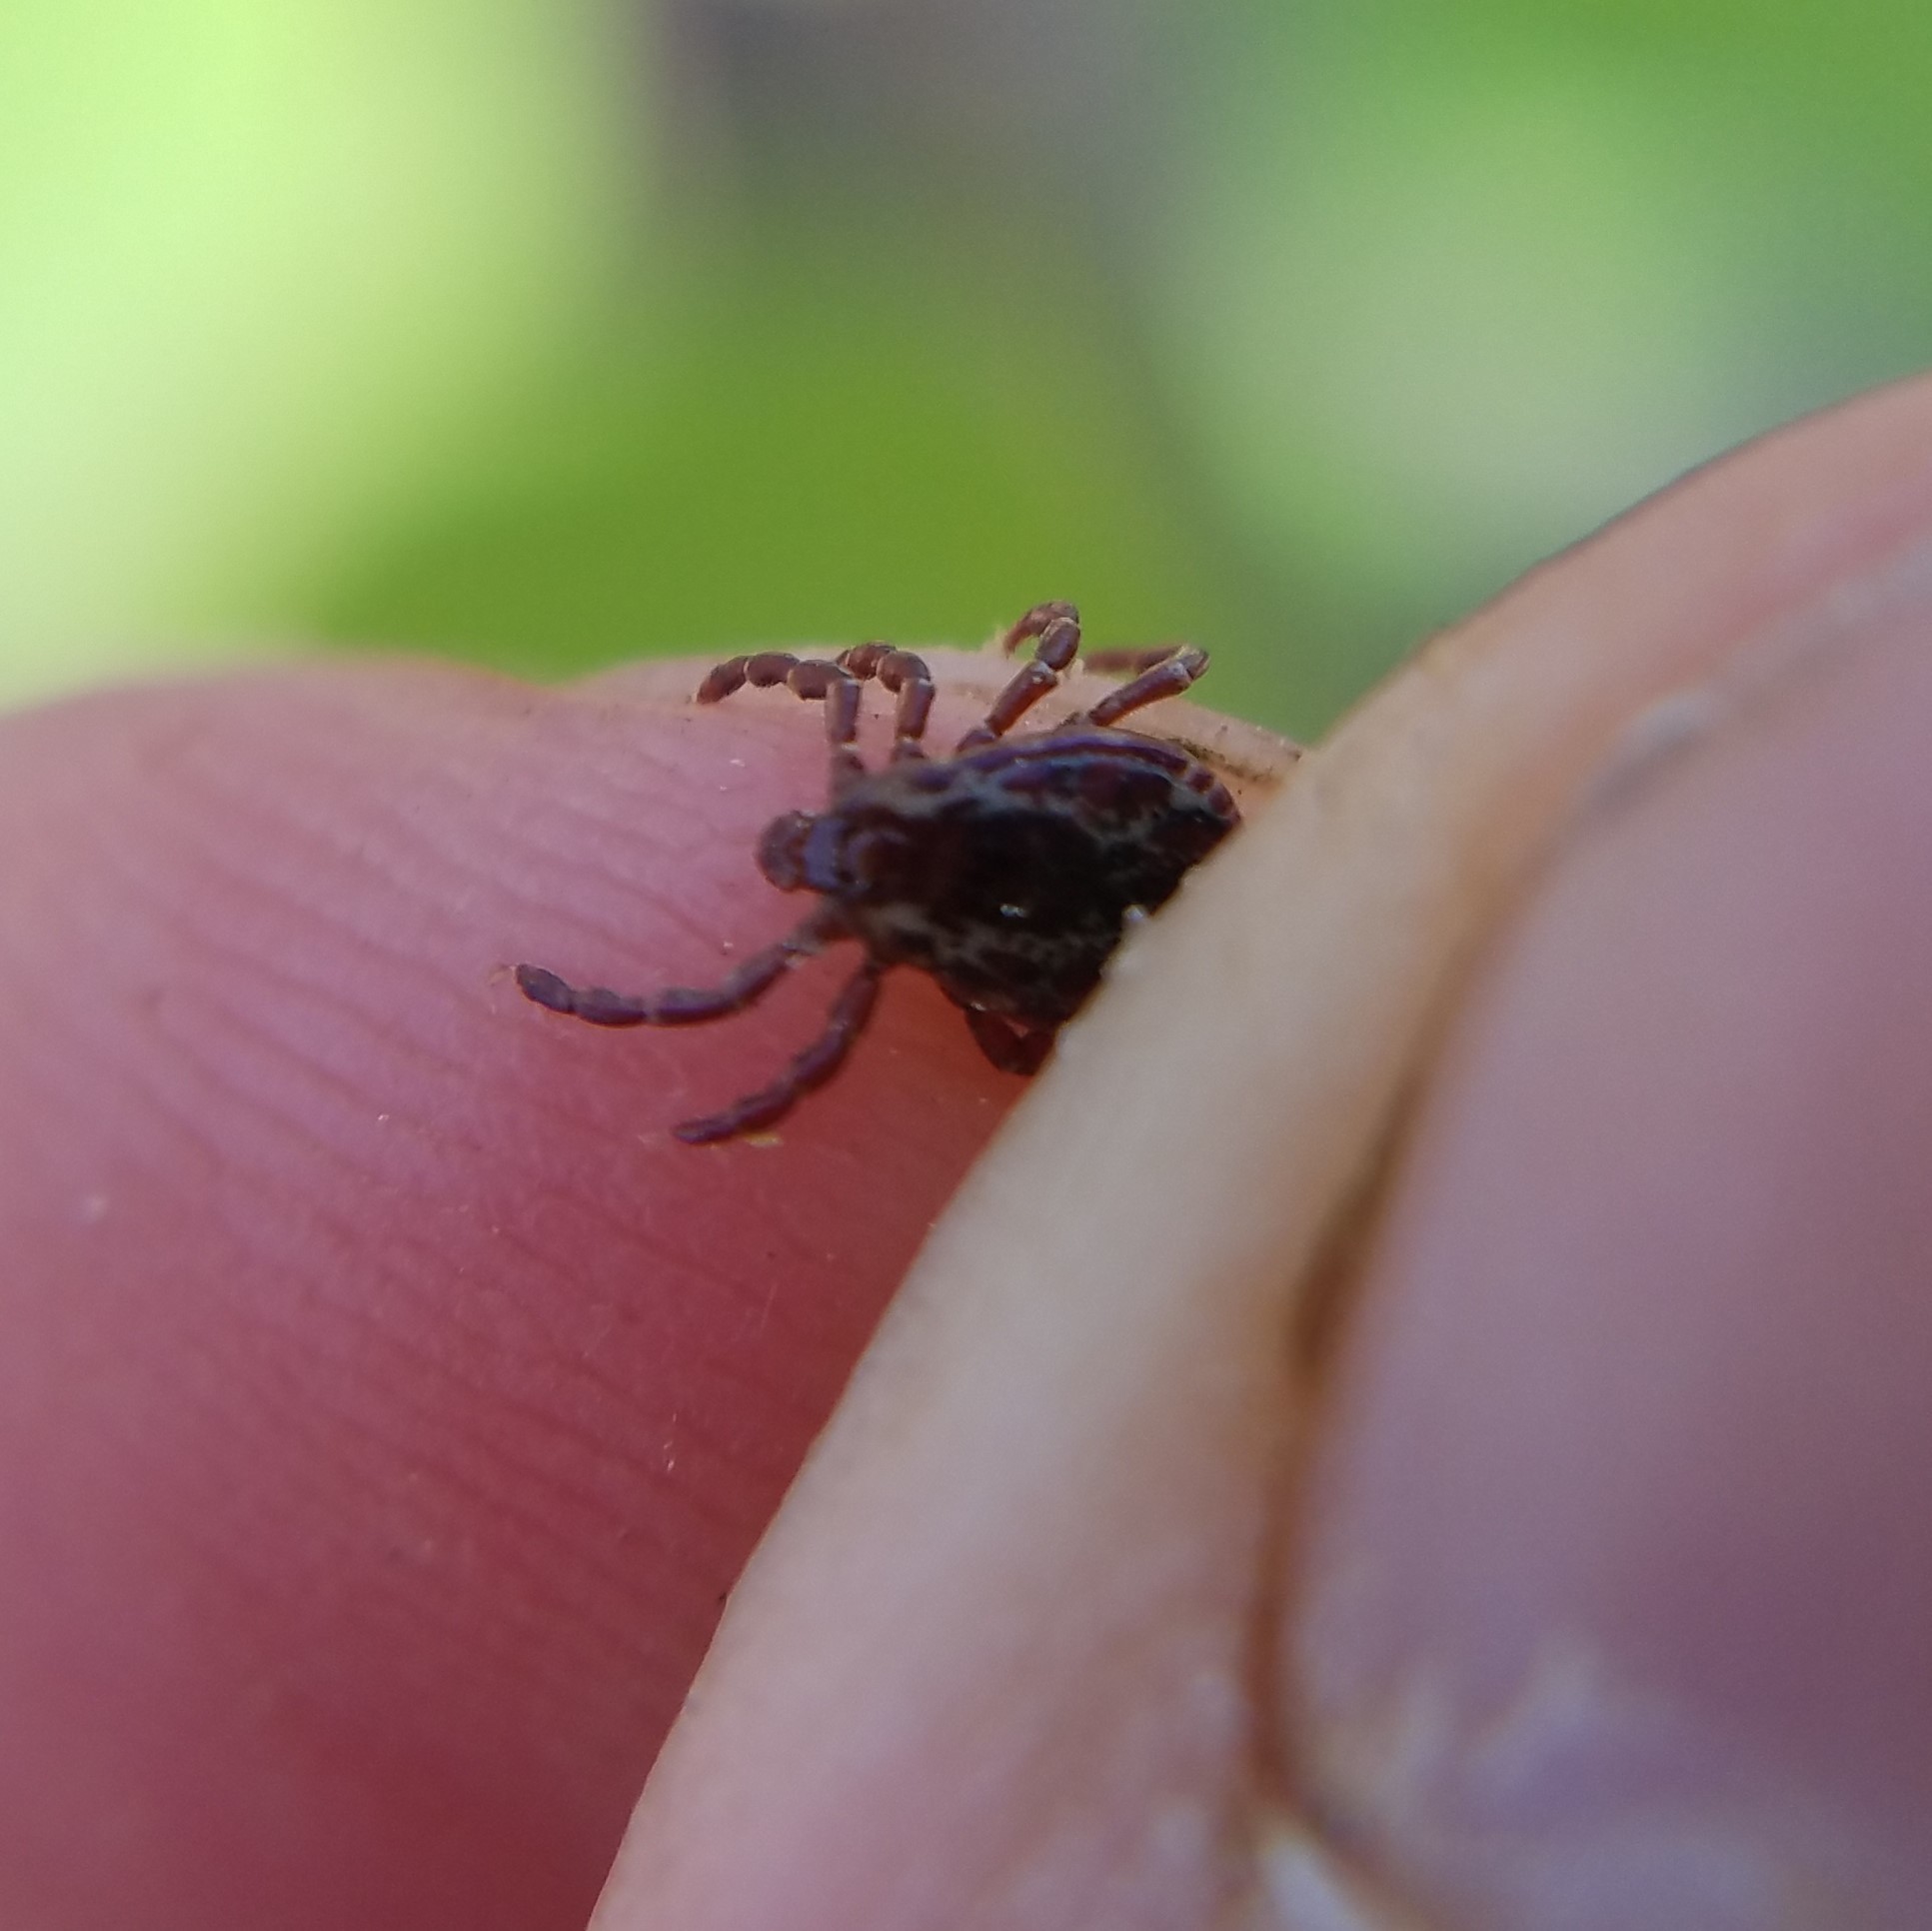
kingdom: Animalia
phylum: Arthropoda
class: Arachnida
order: Ixodida
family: Ixodidae
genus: Dermacentor
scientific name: Dermacentor variabilis
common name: American dog tick
